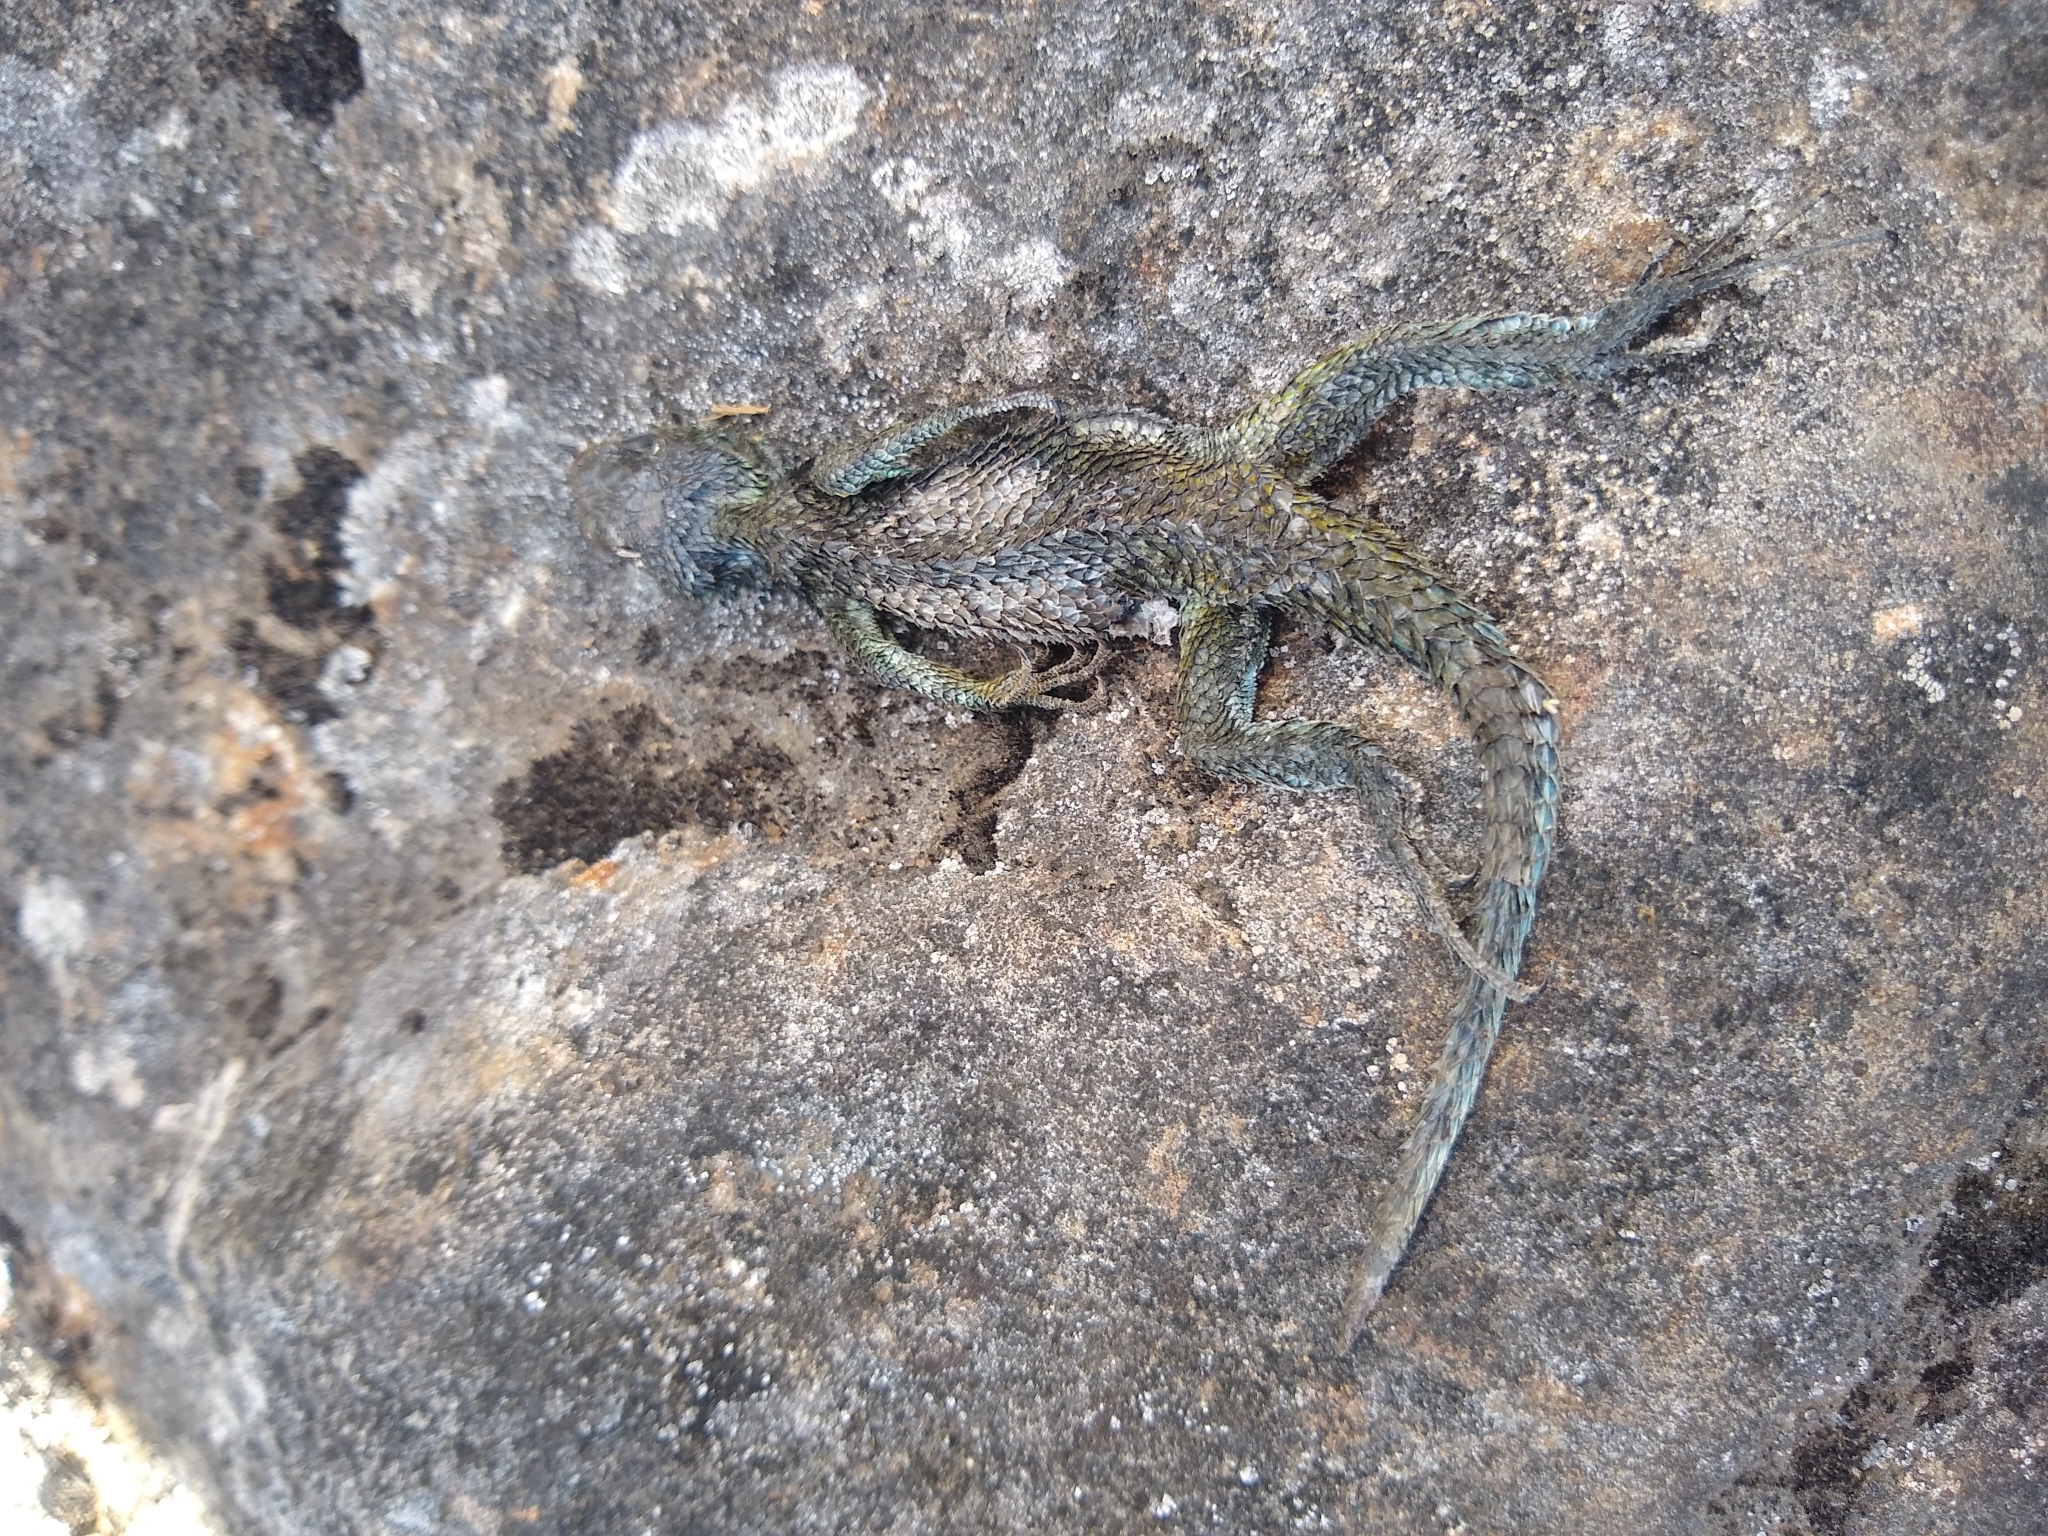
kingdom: Animalia
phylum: Chordata
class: Squamata
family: Phrynosomatidae
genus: Sceloporus
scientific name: Sceloporus malachiticus
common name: Green spiny lizard
